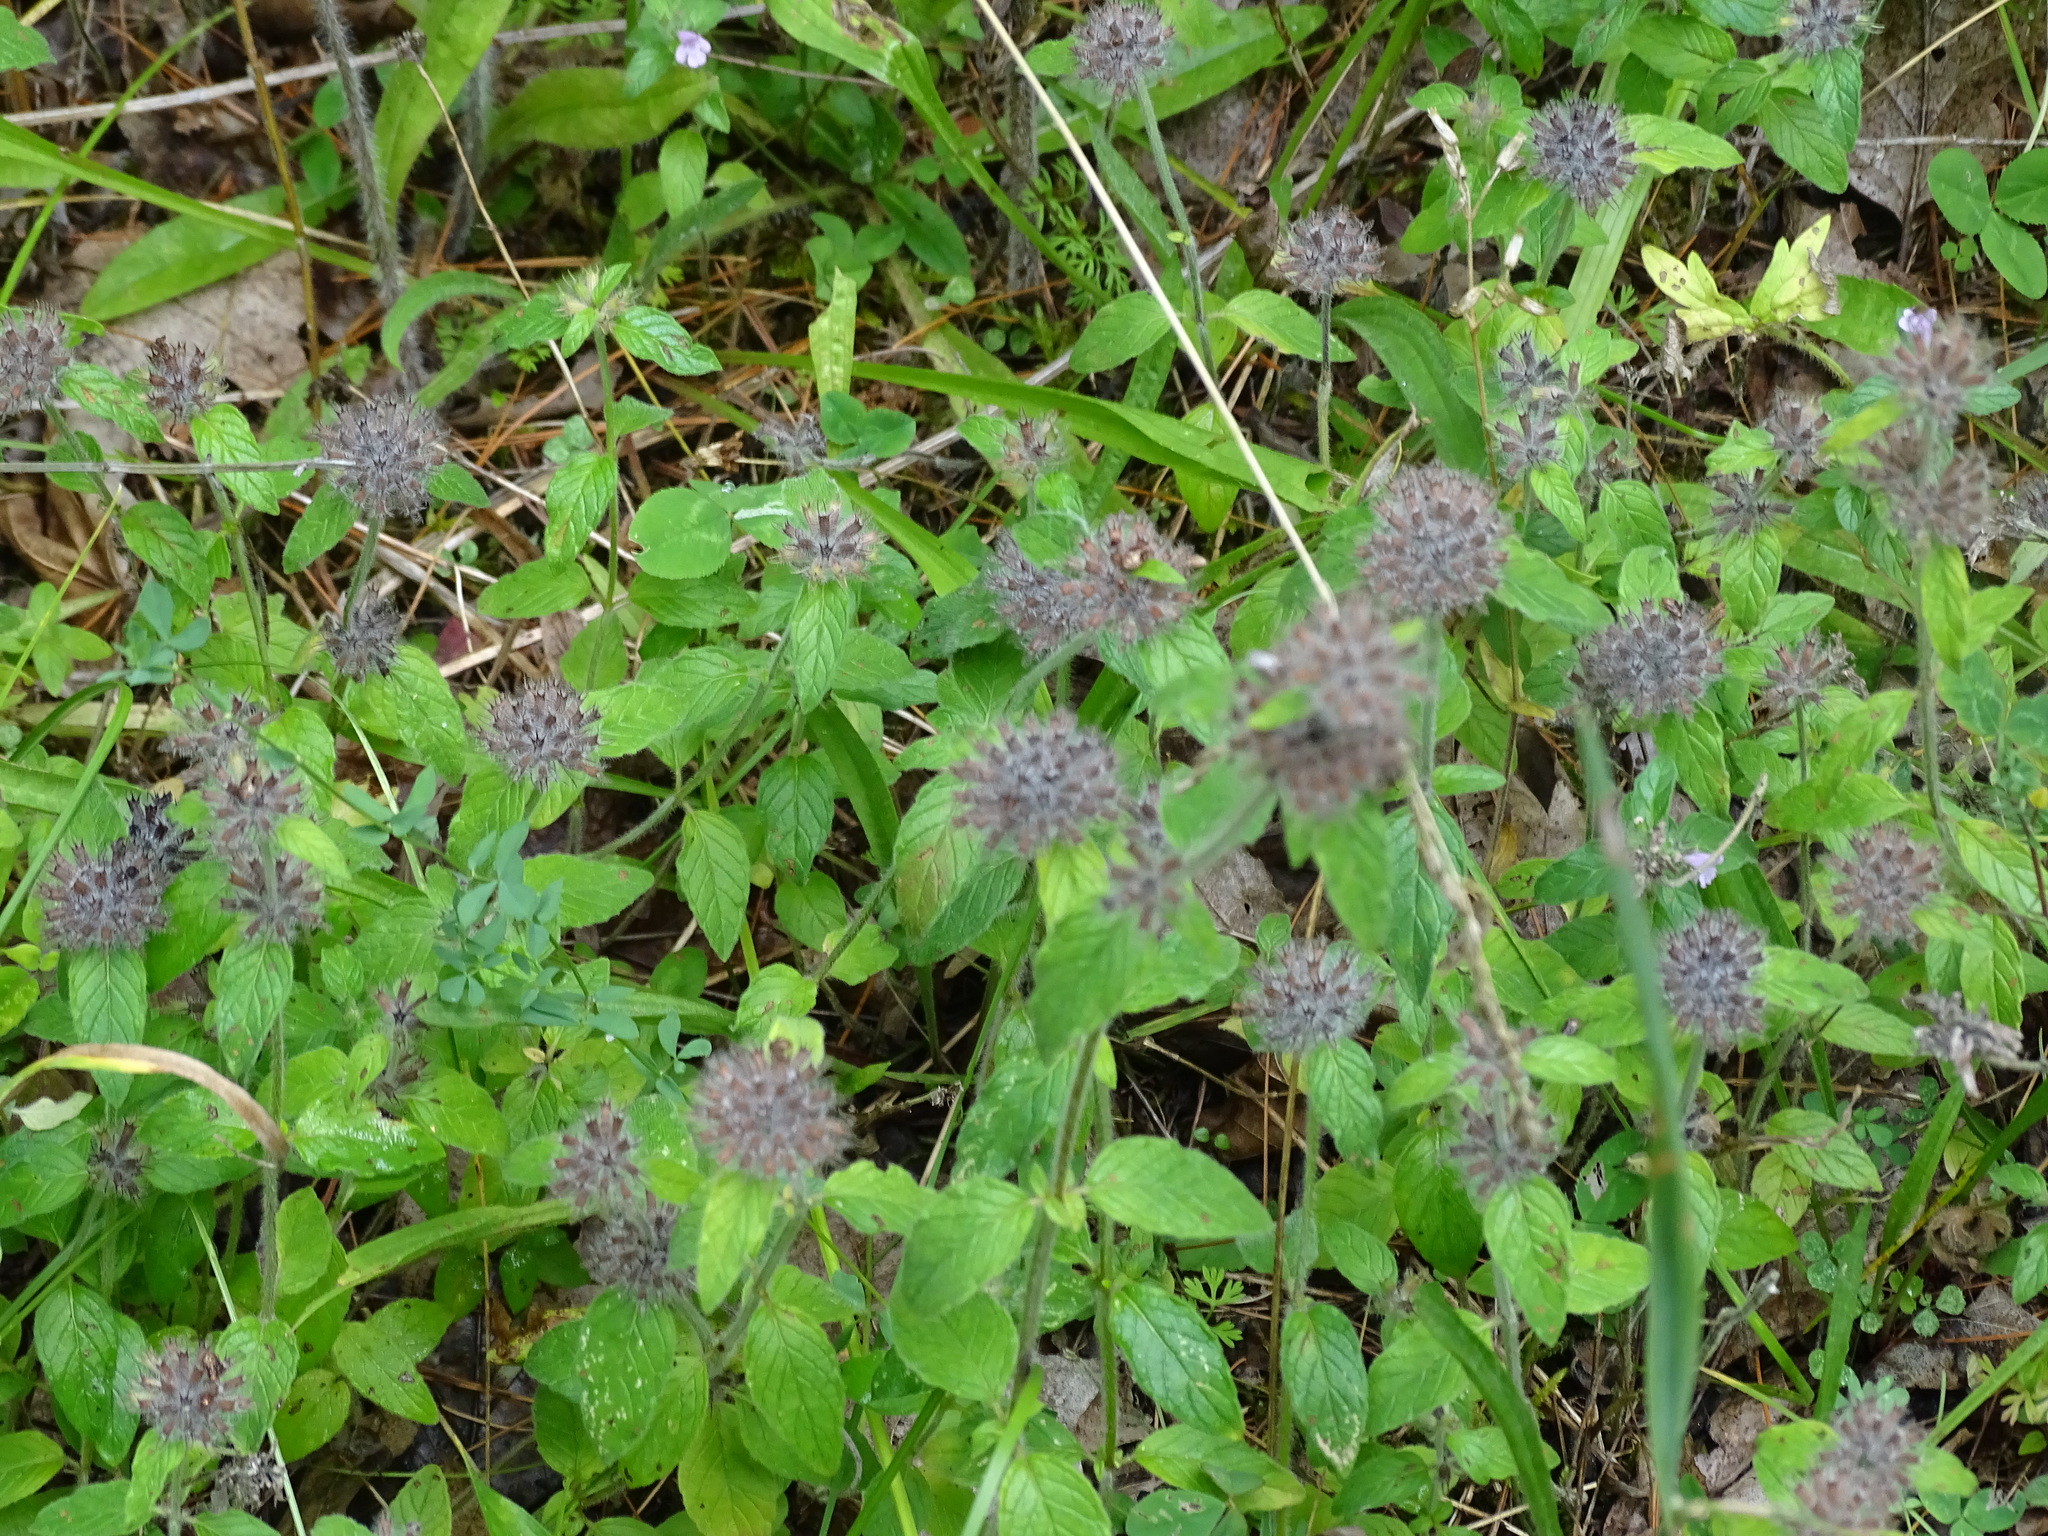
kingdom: Plantae
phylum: Tracheophyta
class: Magnoliopsida
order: Lamiales
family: Lamiaceae
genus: Clinopodium
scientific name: Clinopodium vulgare
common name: Wild basil
